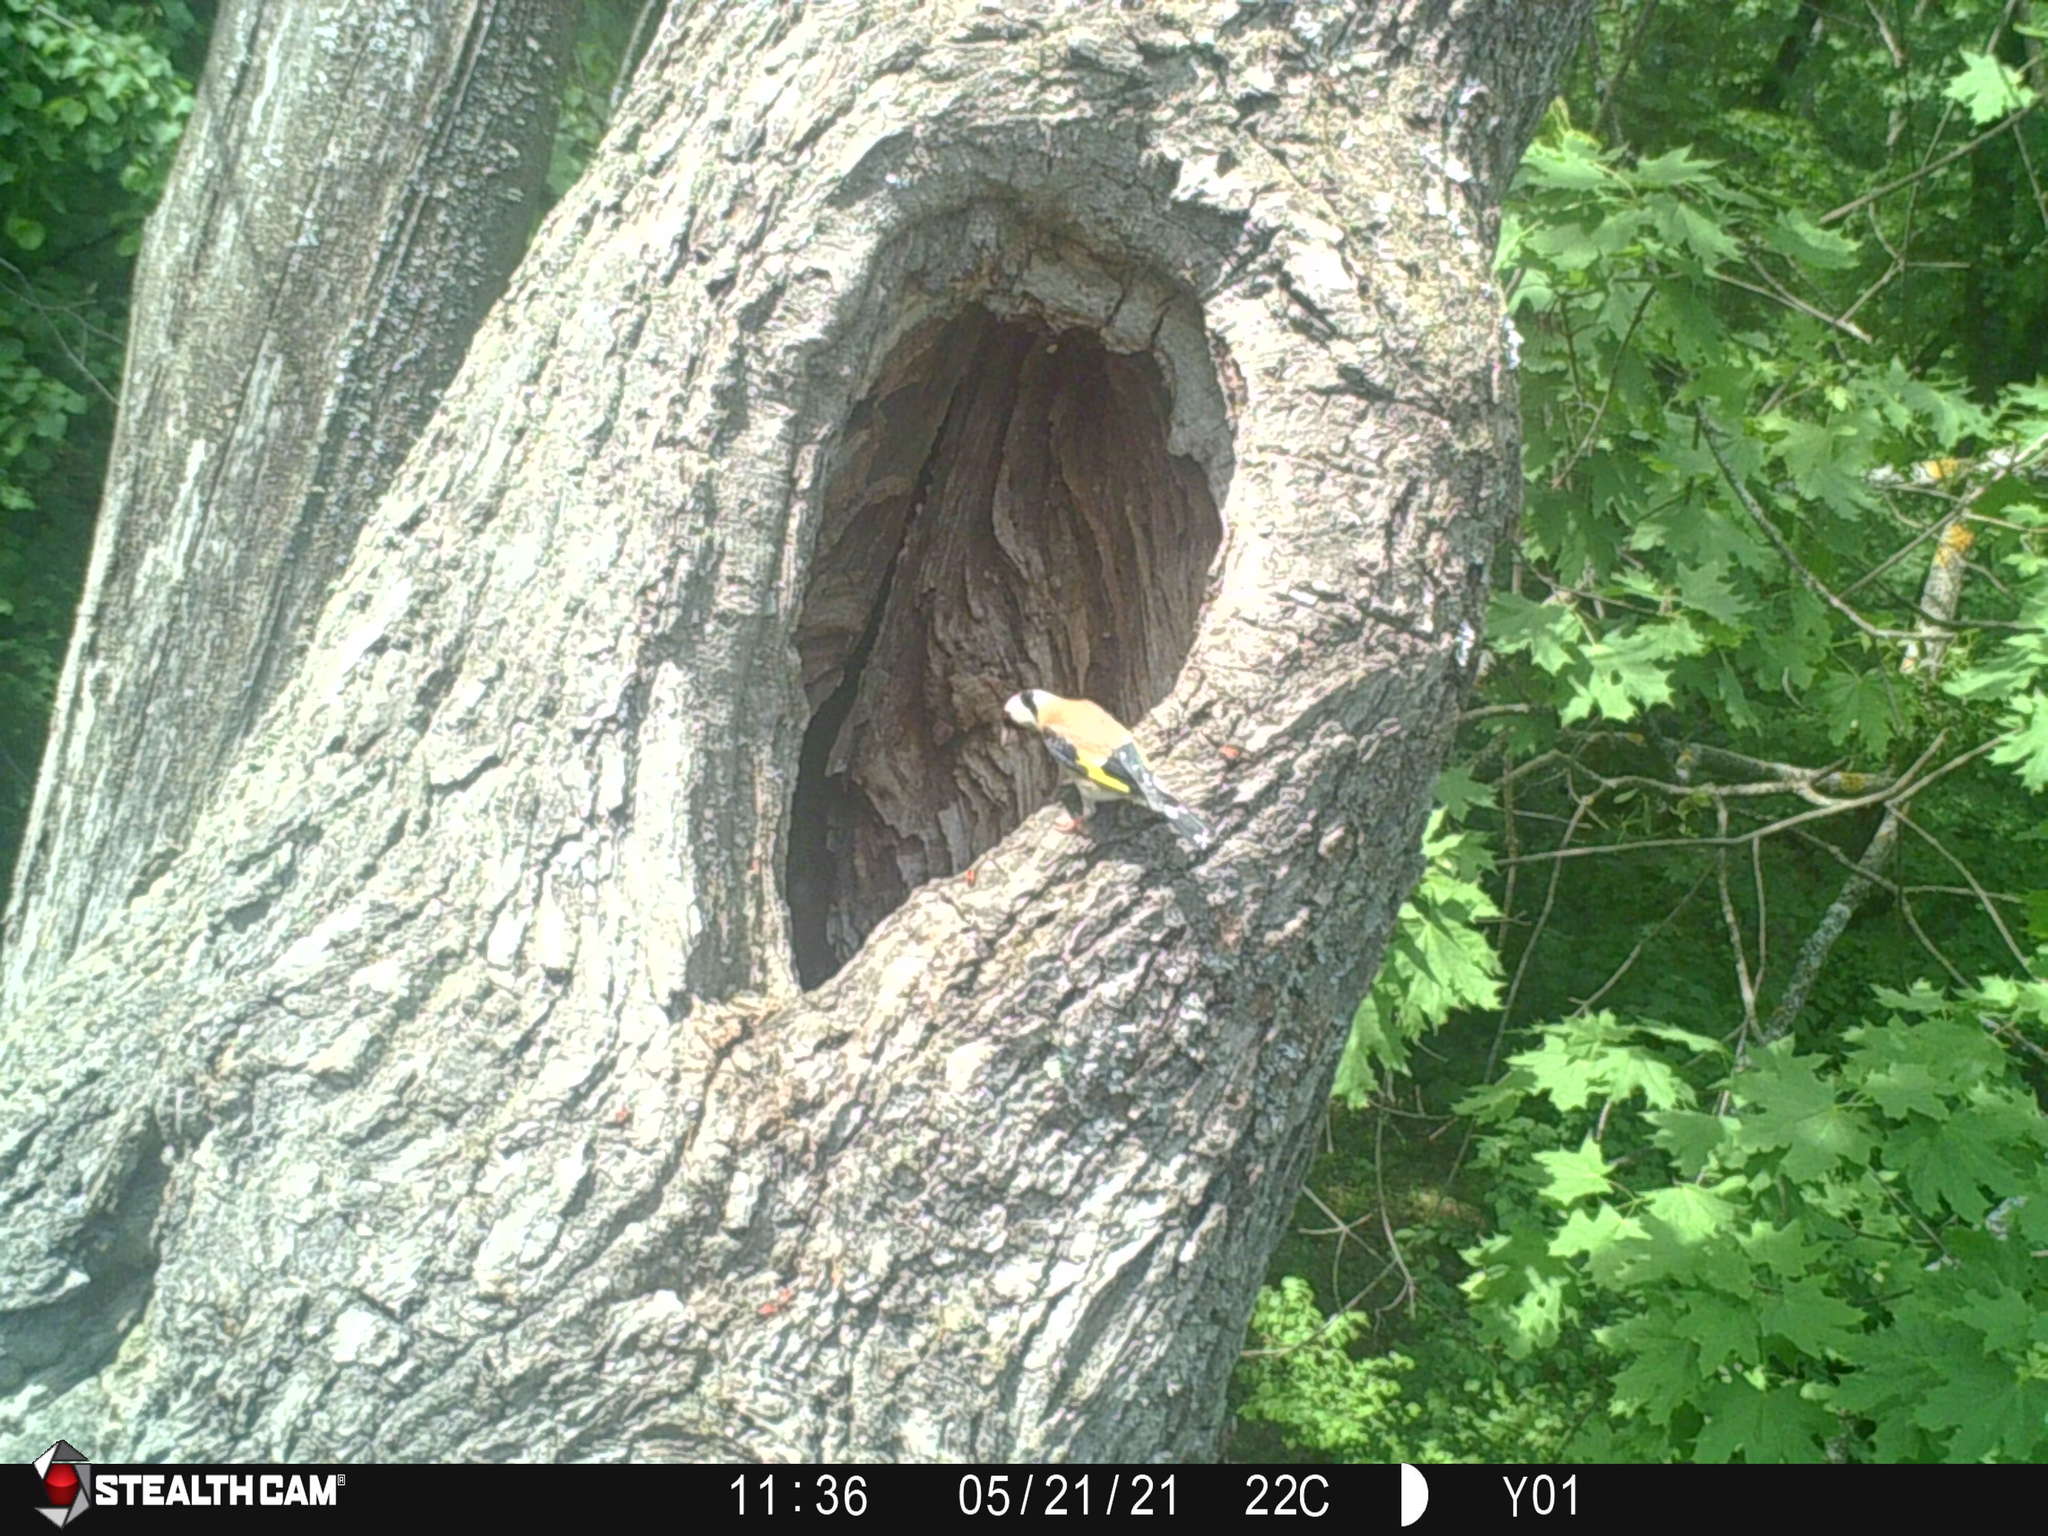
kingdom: Animalia
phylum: Chordata
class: Aves
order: Passeriformes
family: Fringillidae
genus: Carduelis
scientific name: Carduelis carduelis
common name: European goldfinch
